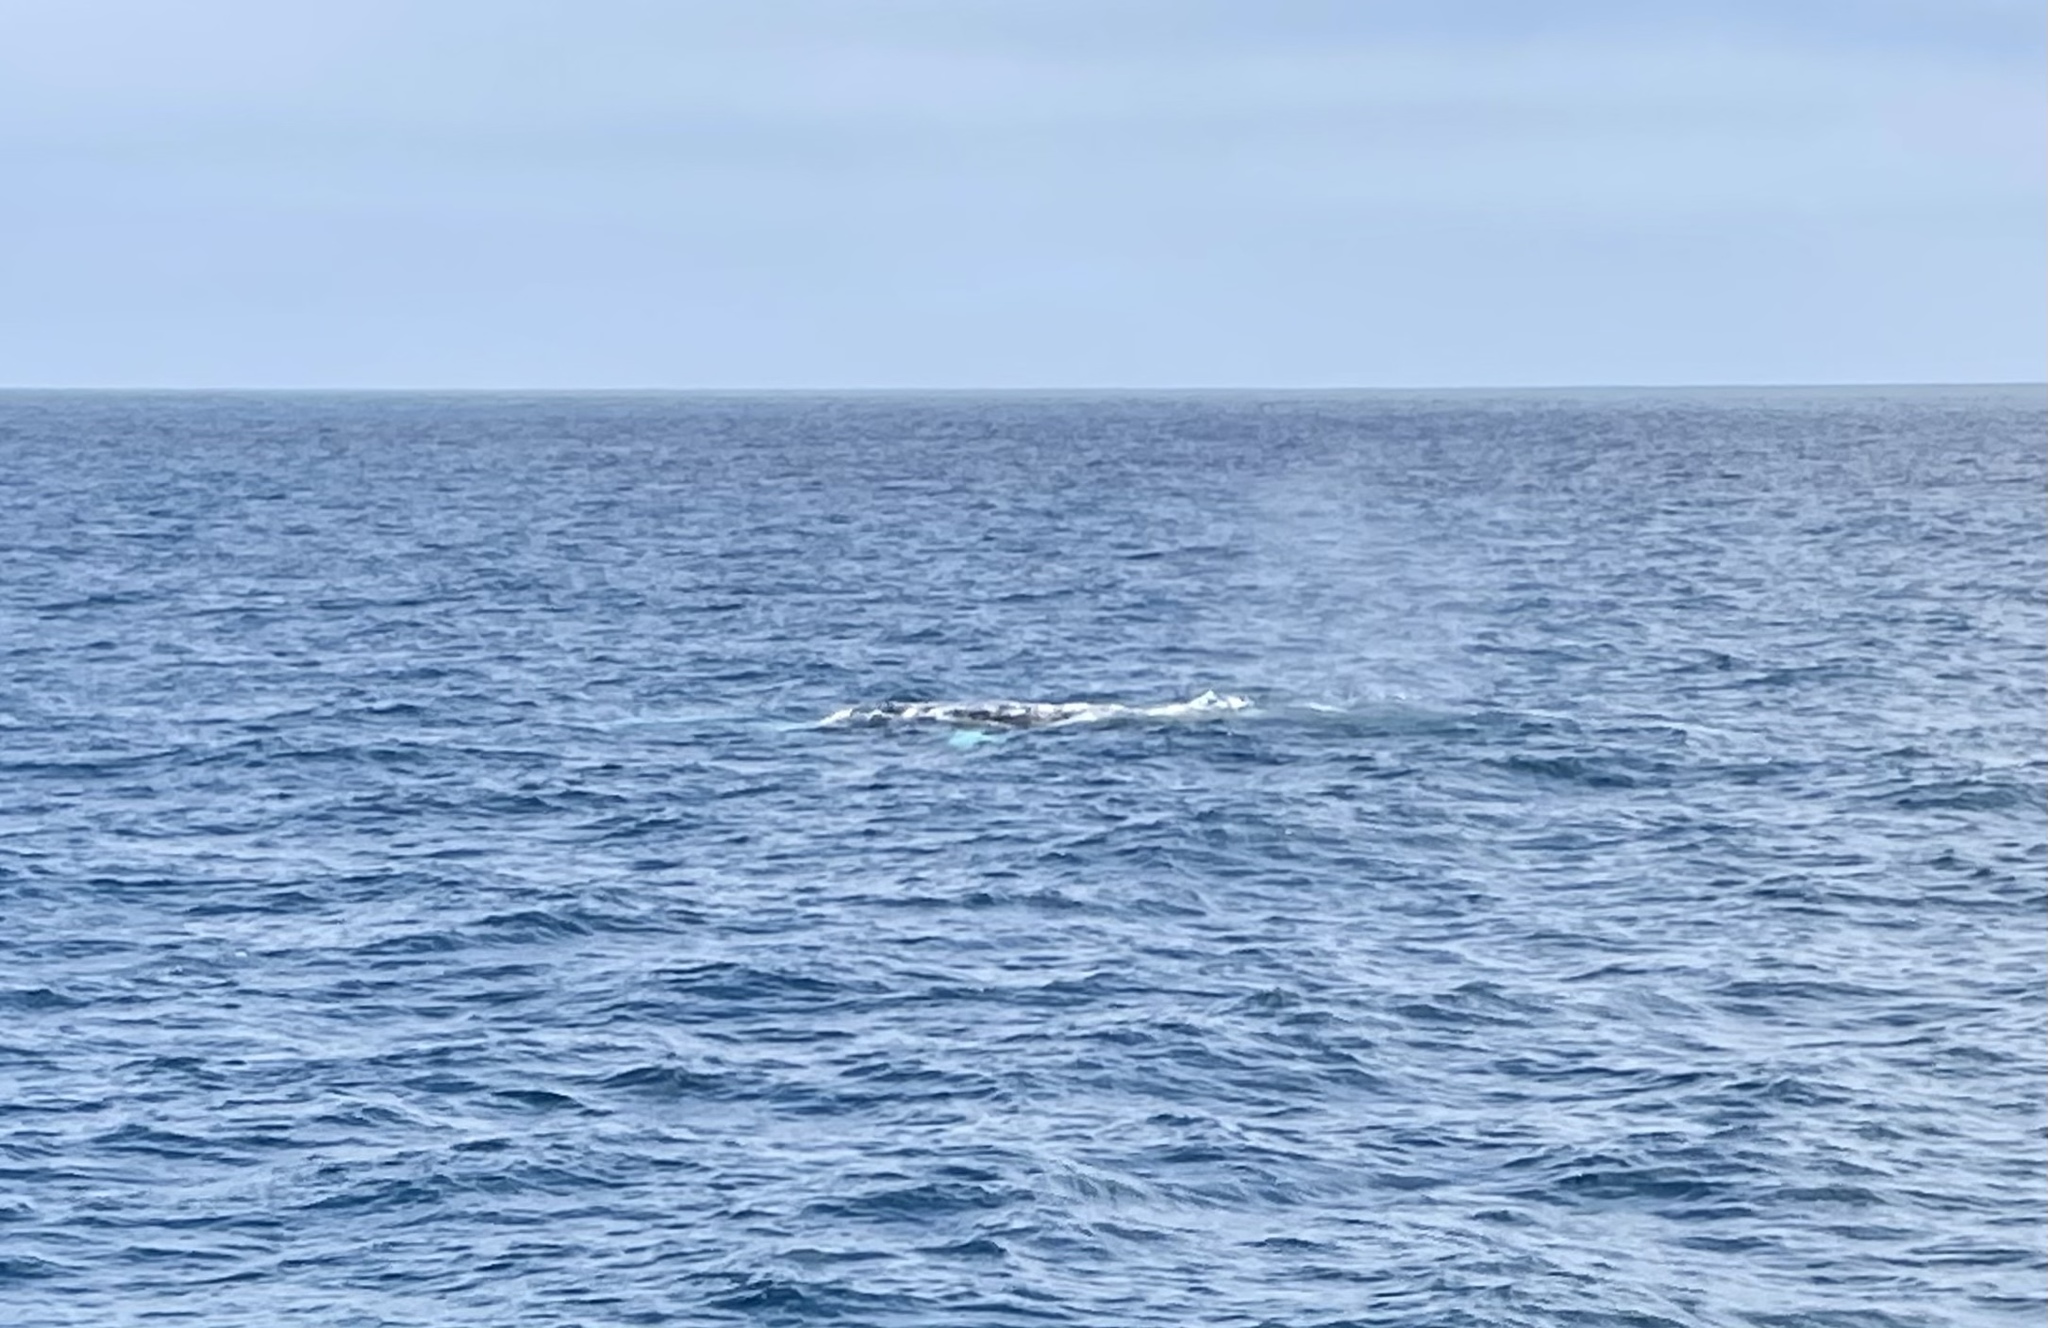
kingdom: Animalia
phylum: Chordata
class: Mammalia
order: Cetacea
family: Eschrichtiidae
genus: Eschrichtius
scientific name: Eschrichtius robustus
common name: Gray whale
